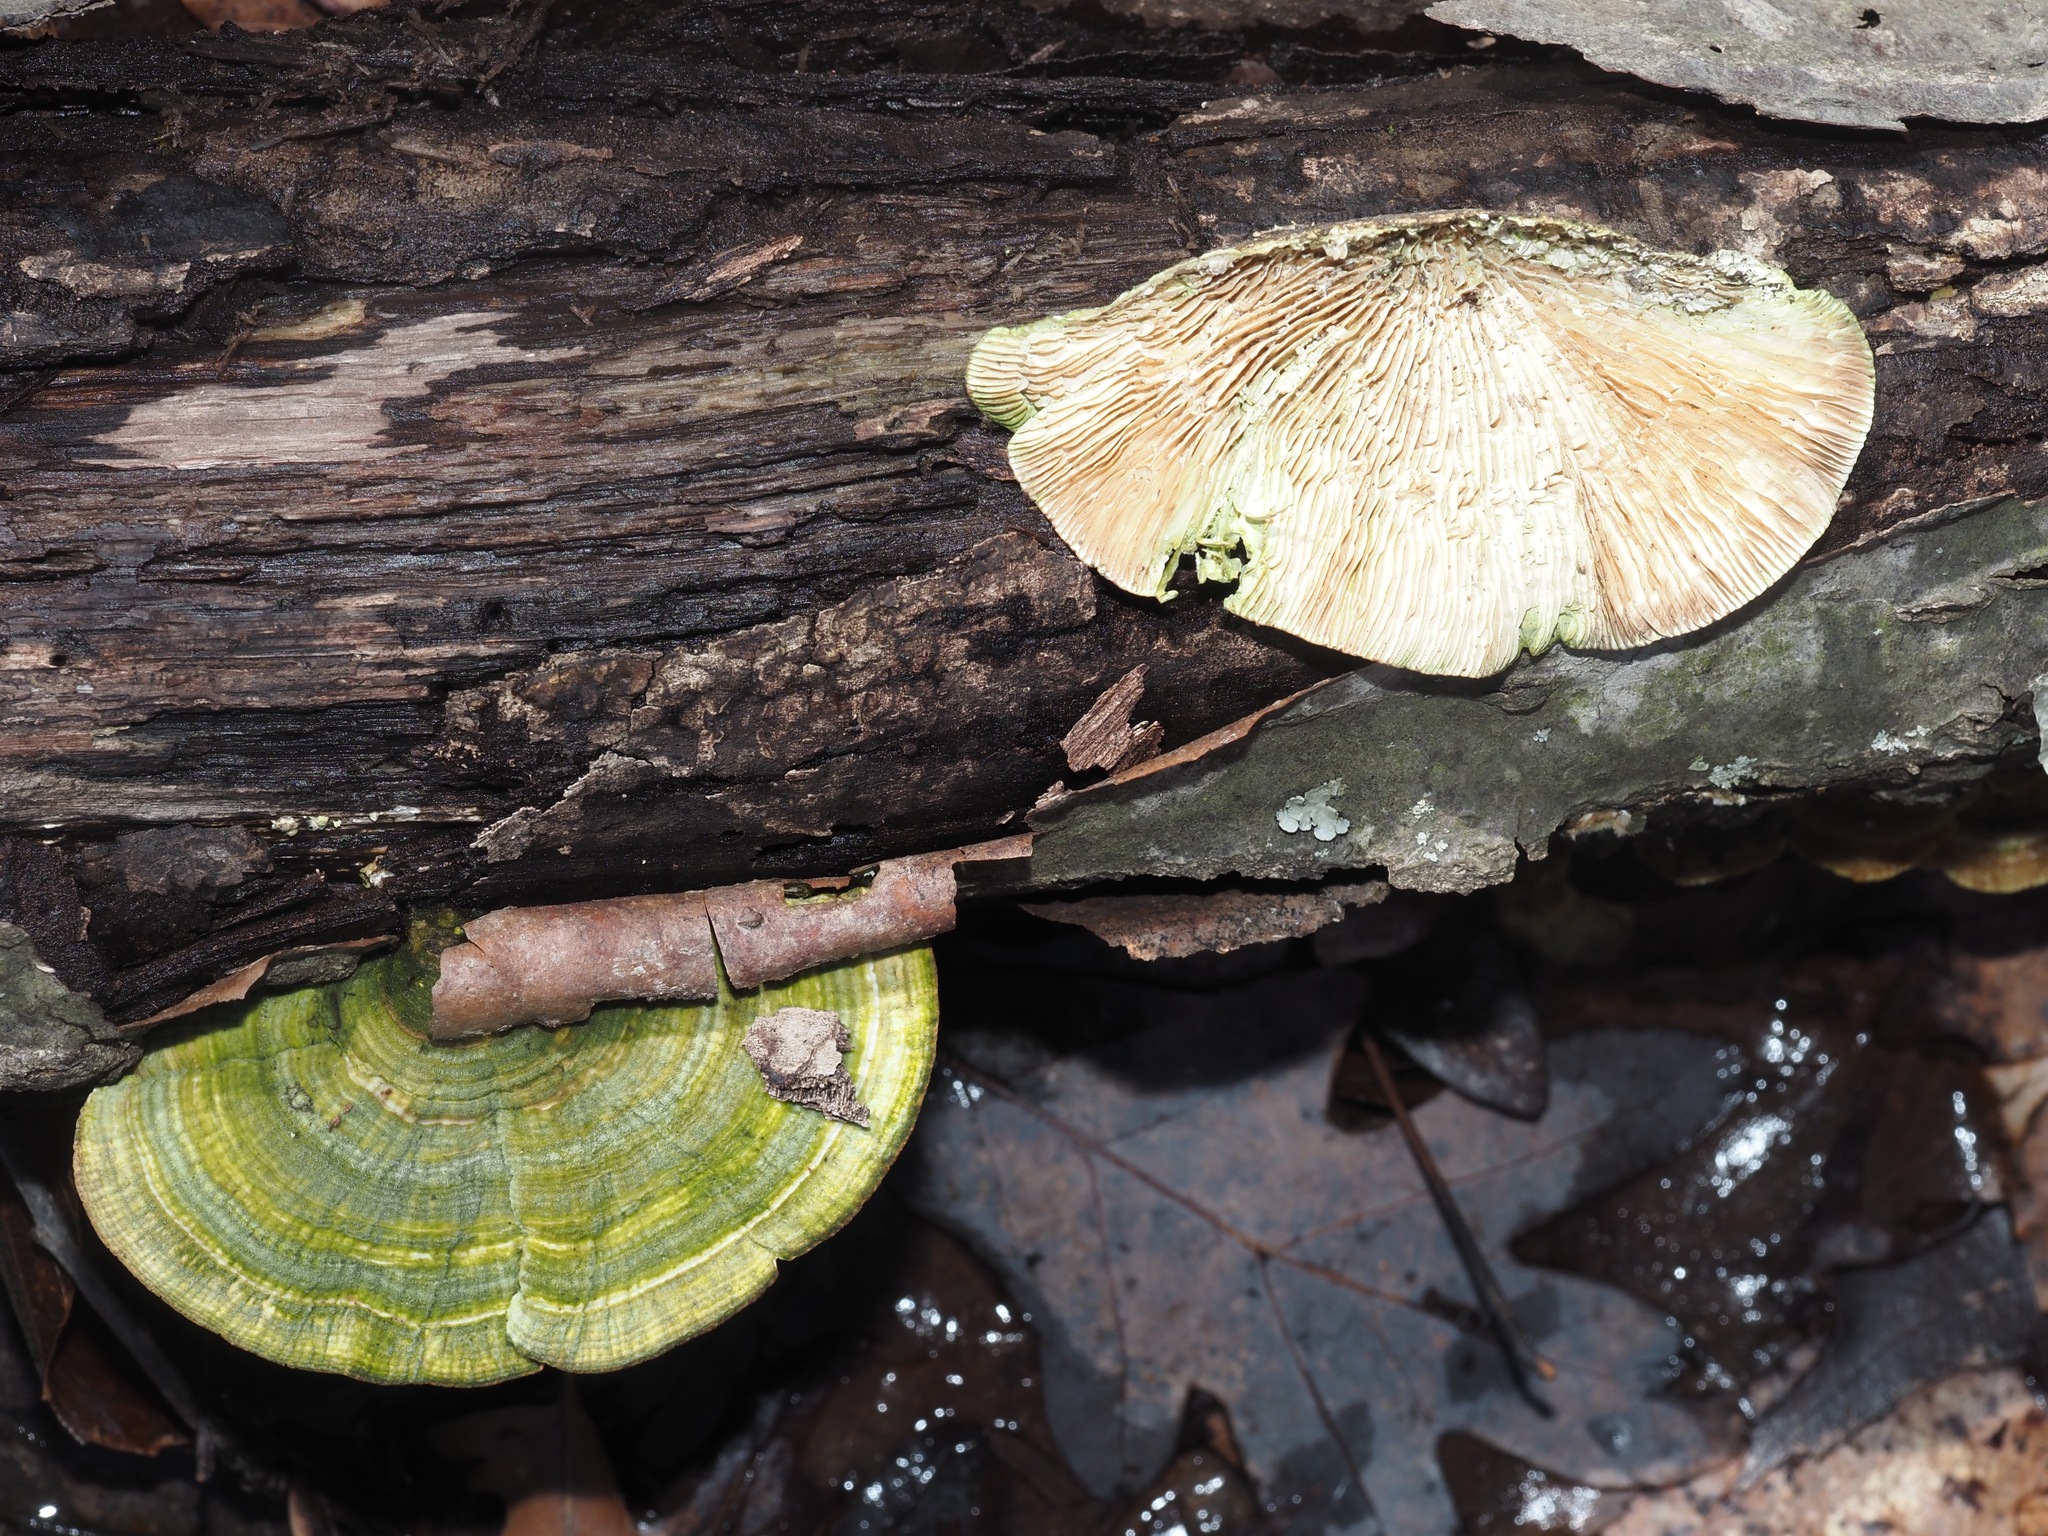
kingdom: Fungi
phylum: Basidiomycota
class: Agaricomycetes
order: Polyporales
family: Polyporaceae
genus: Lenzites
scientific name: Lenzites betulinus
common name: Birch mazegill
